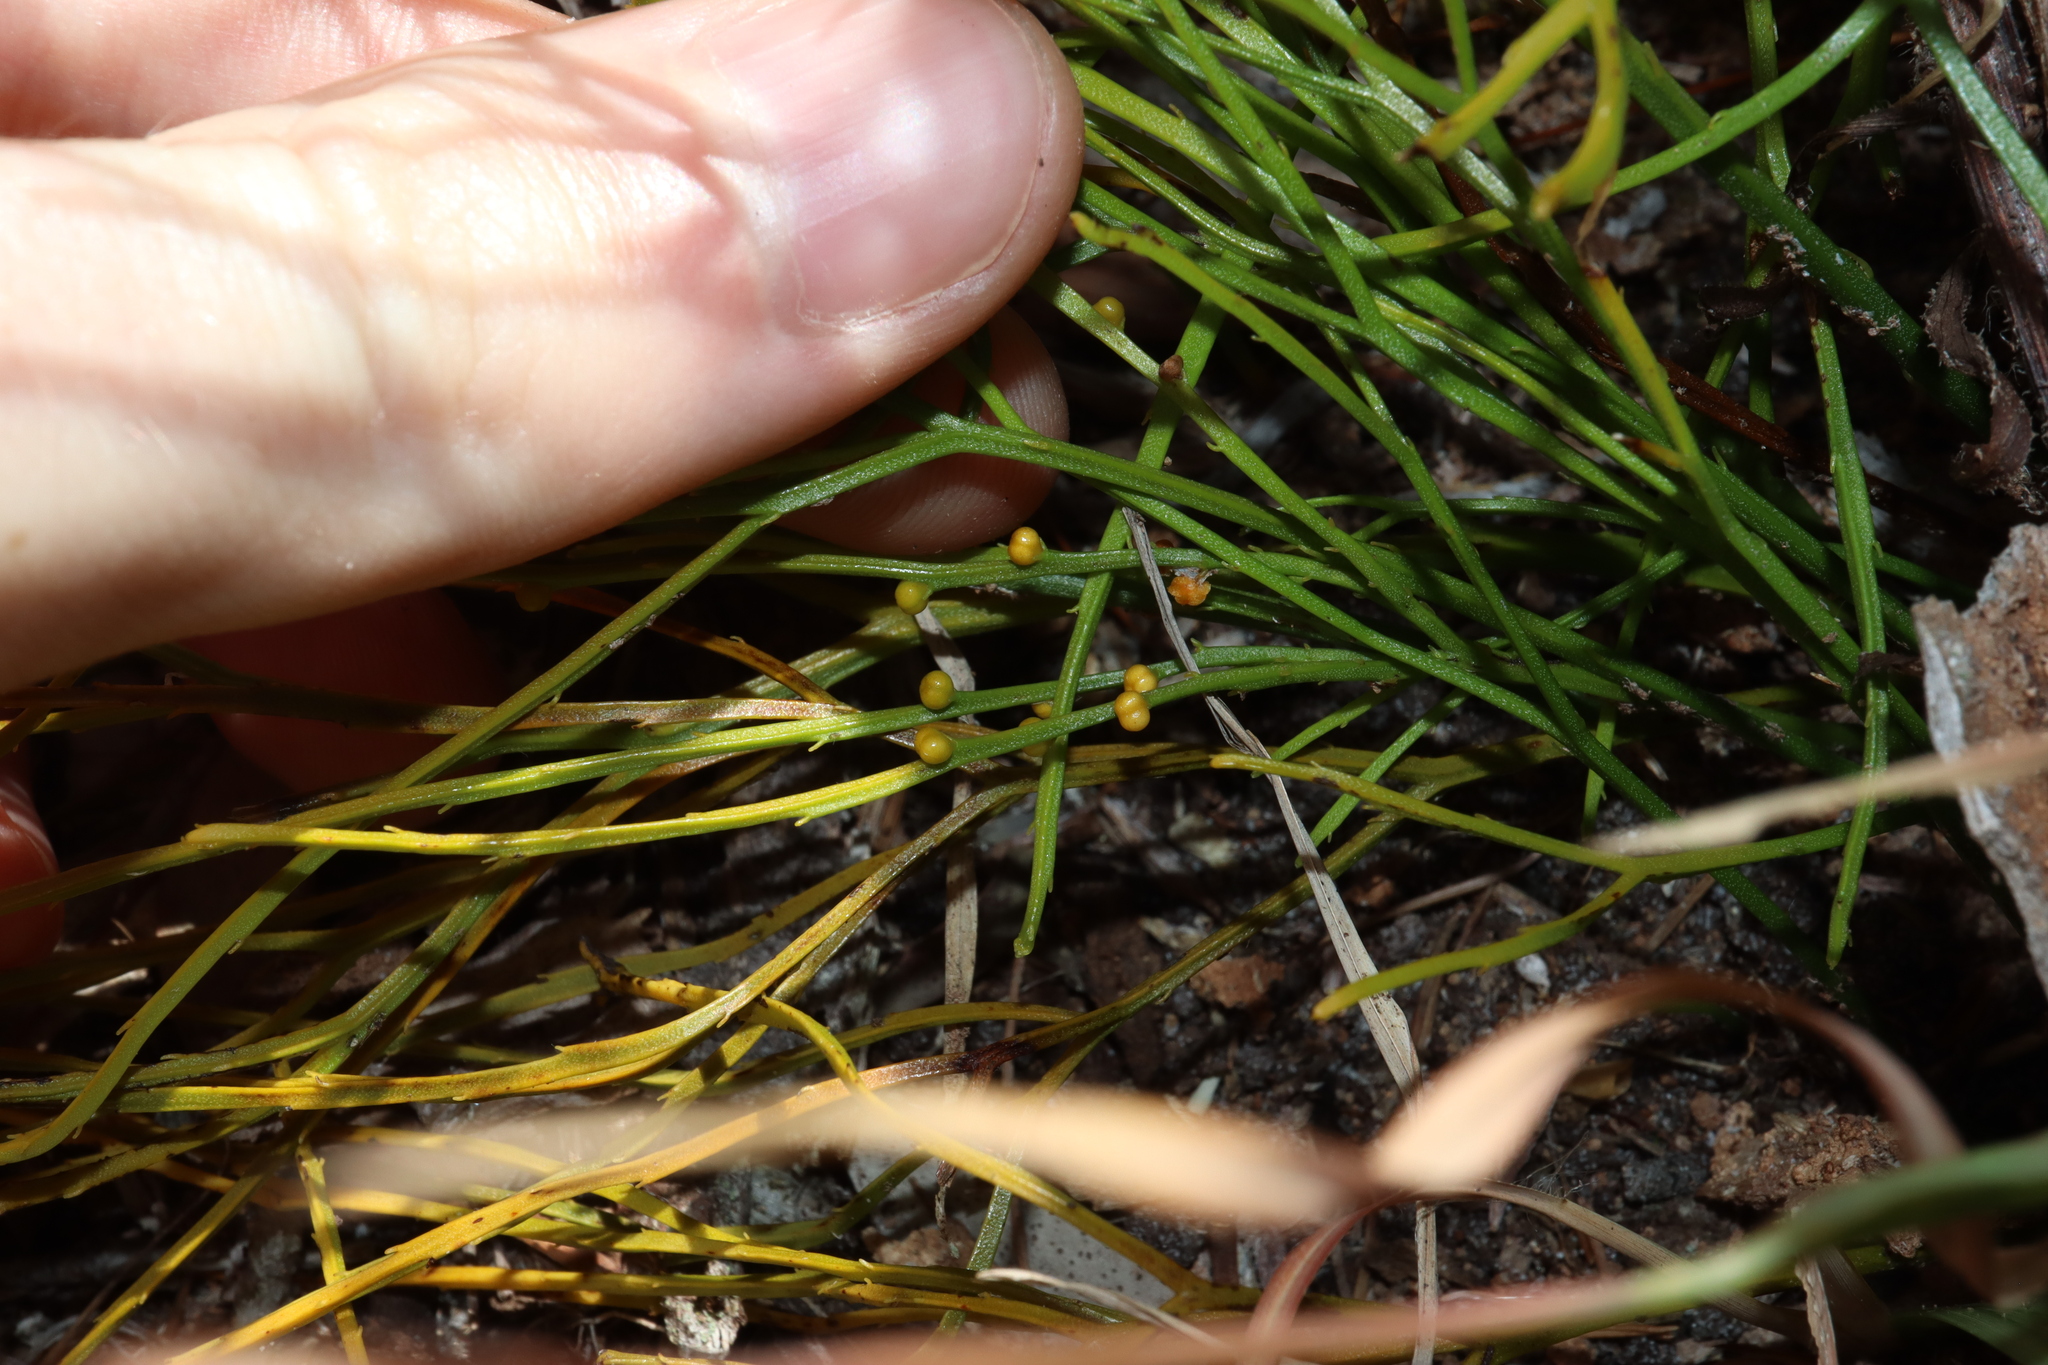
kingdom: Plantae
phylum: Tracheophyta
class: Polypodiopsida
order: Psilotales
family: Psilotaceae
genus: Psilotum
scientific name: Psilotum nudum
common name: Skeleton fork fern
